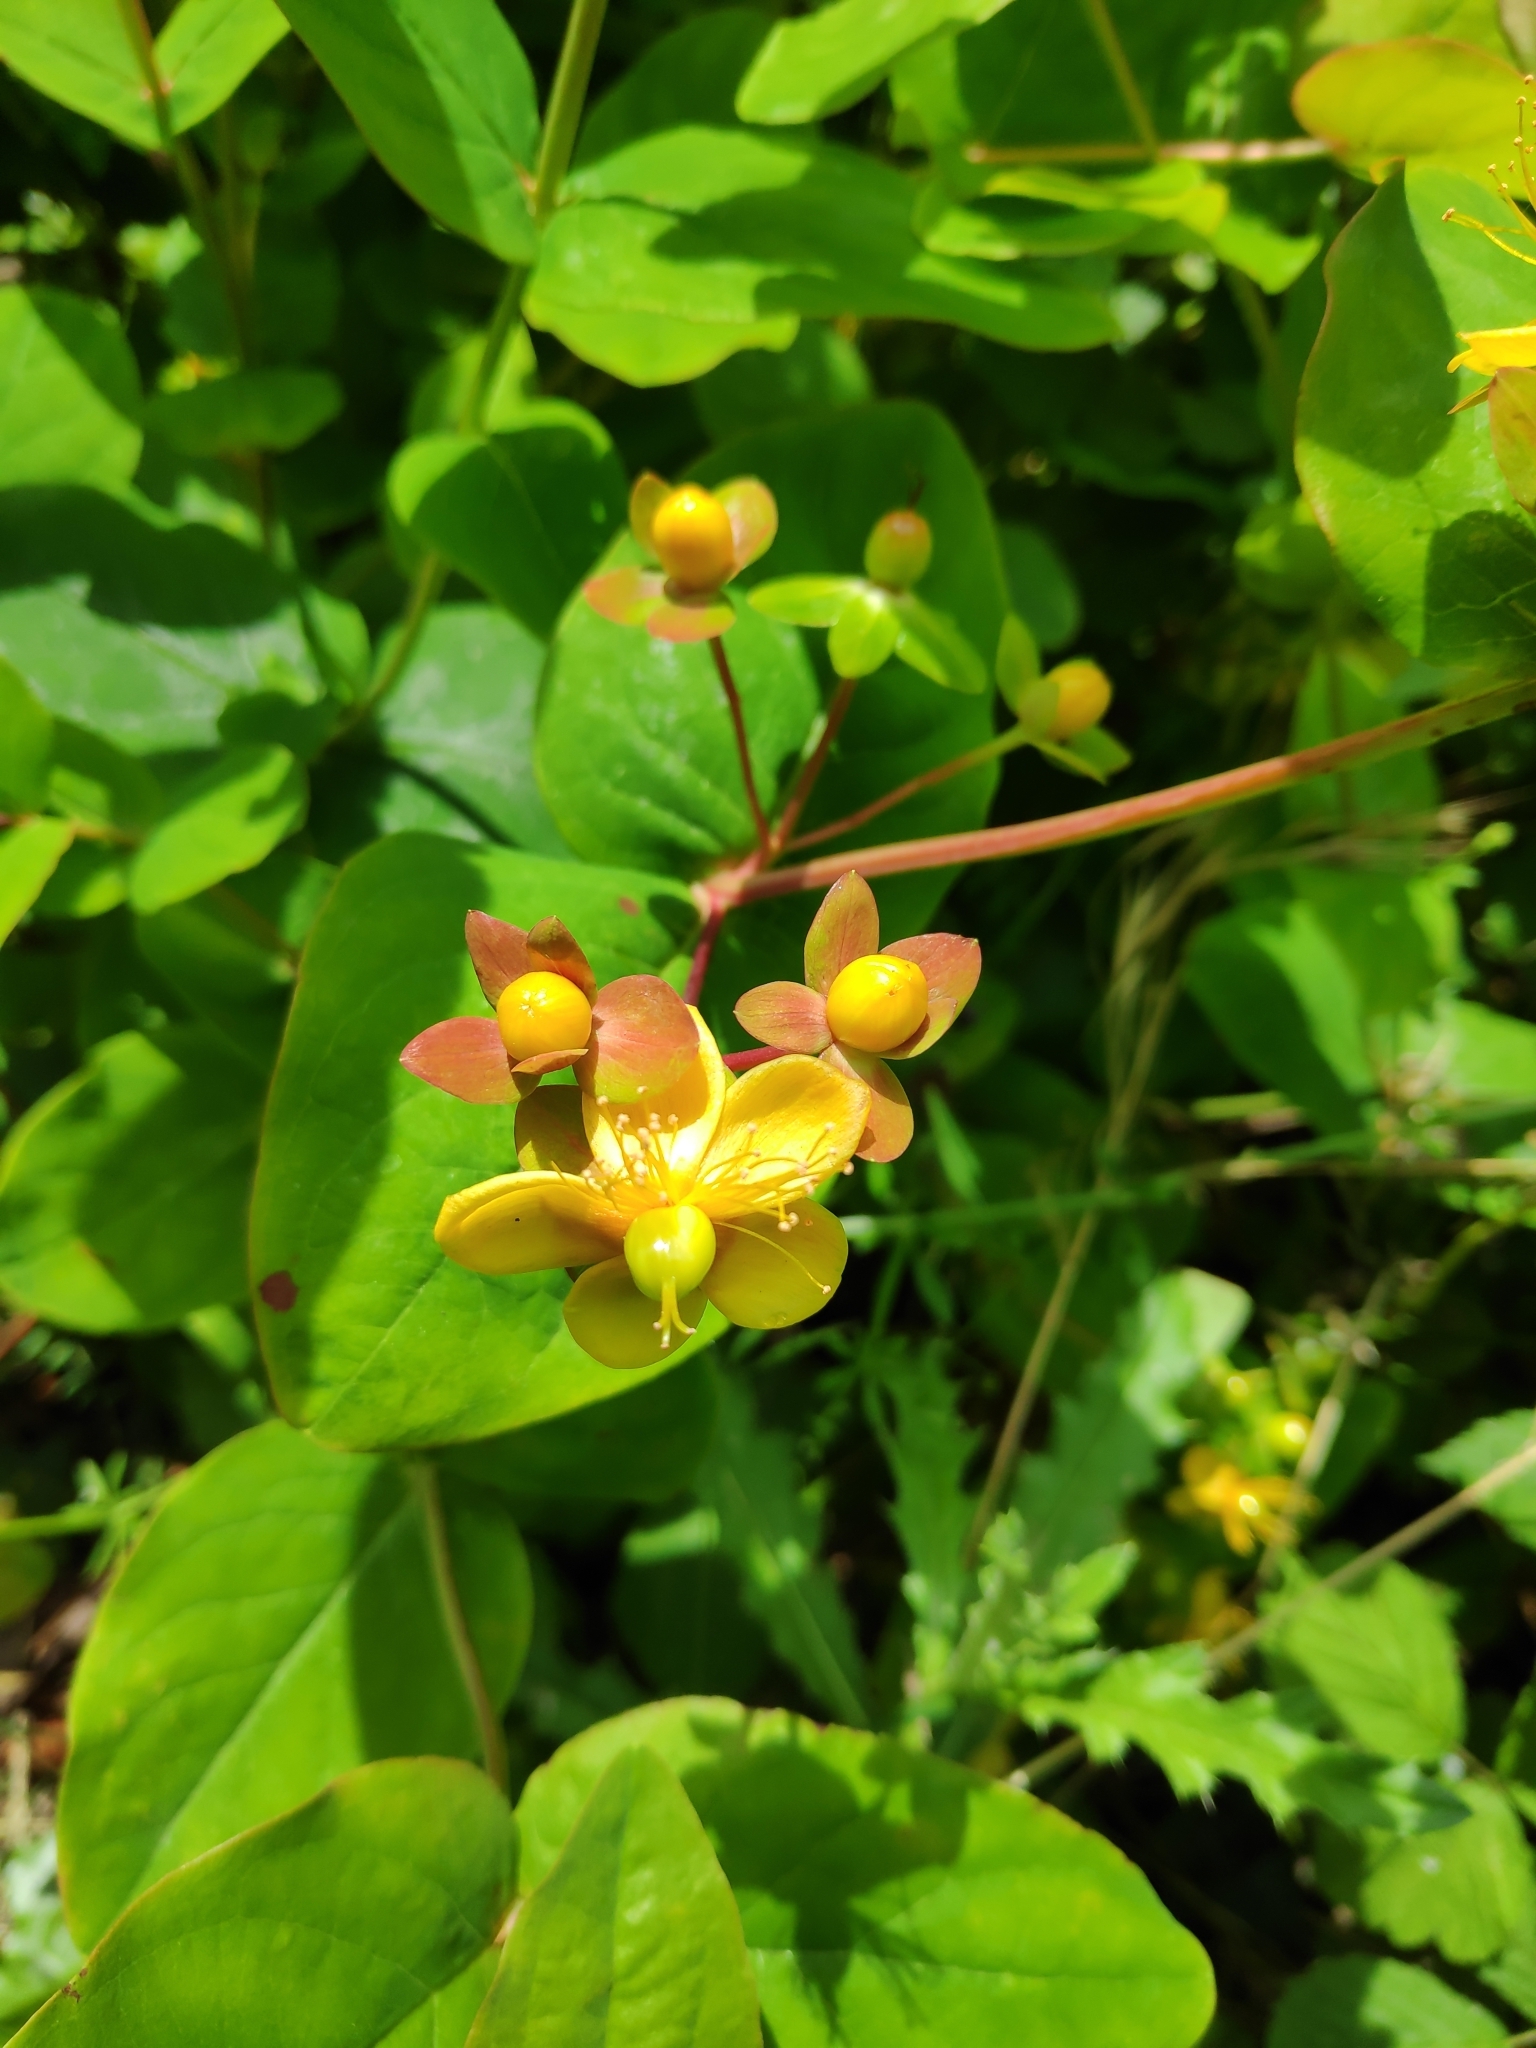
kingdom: Plantae
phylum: Tracheophyta
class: Magnoliopsida
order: Malpighiales
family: Hypericaceae
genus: Hypericum
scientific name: Hypericum androsaemum
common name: Sweet-amber
